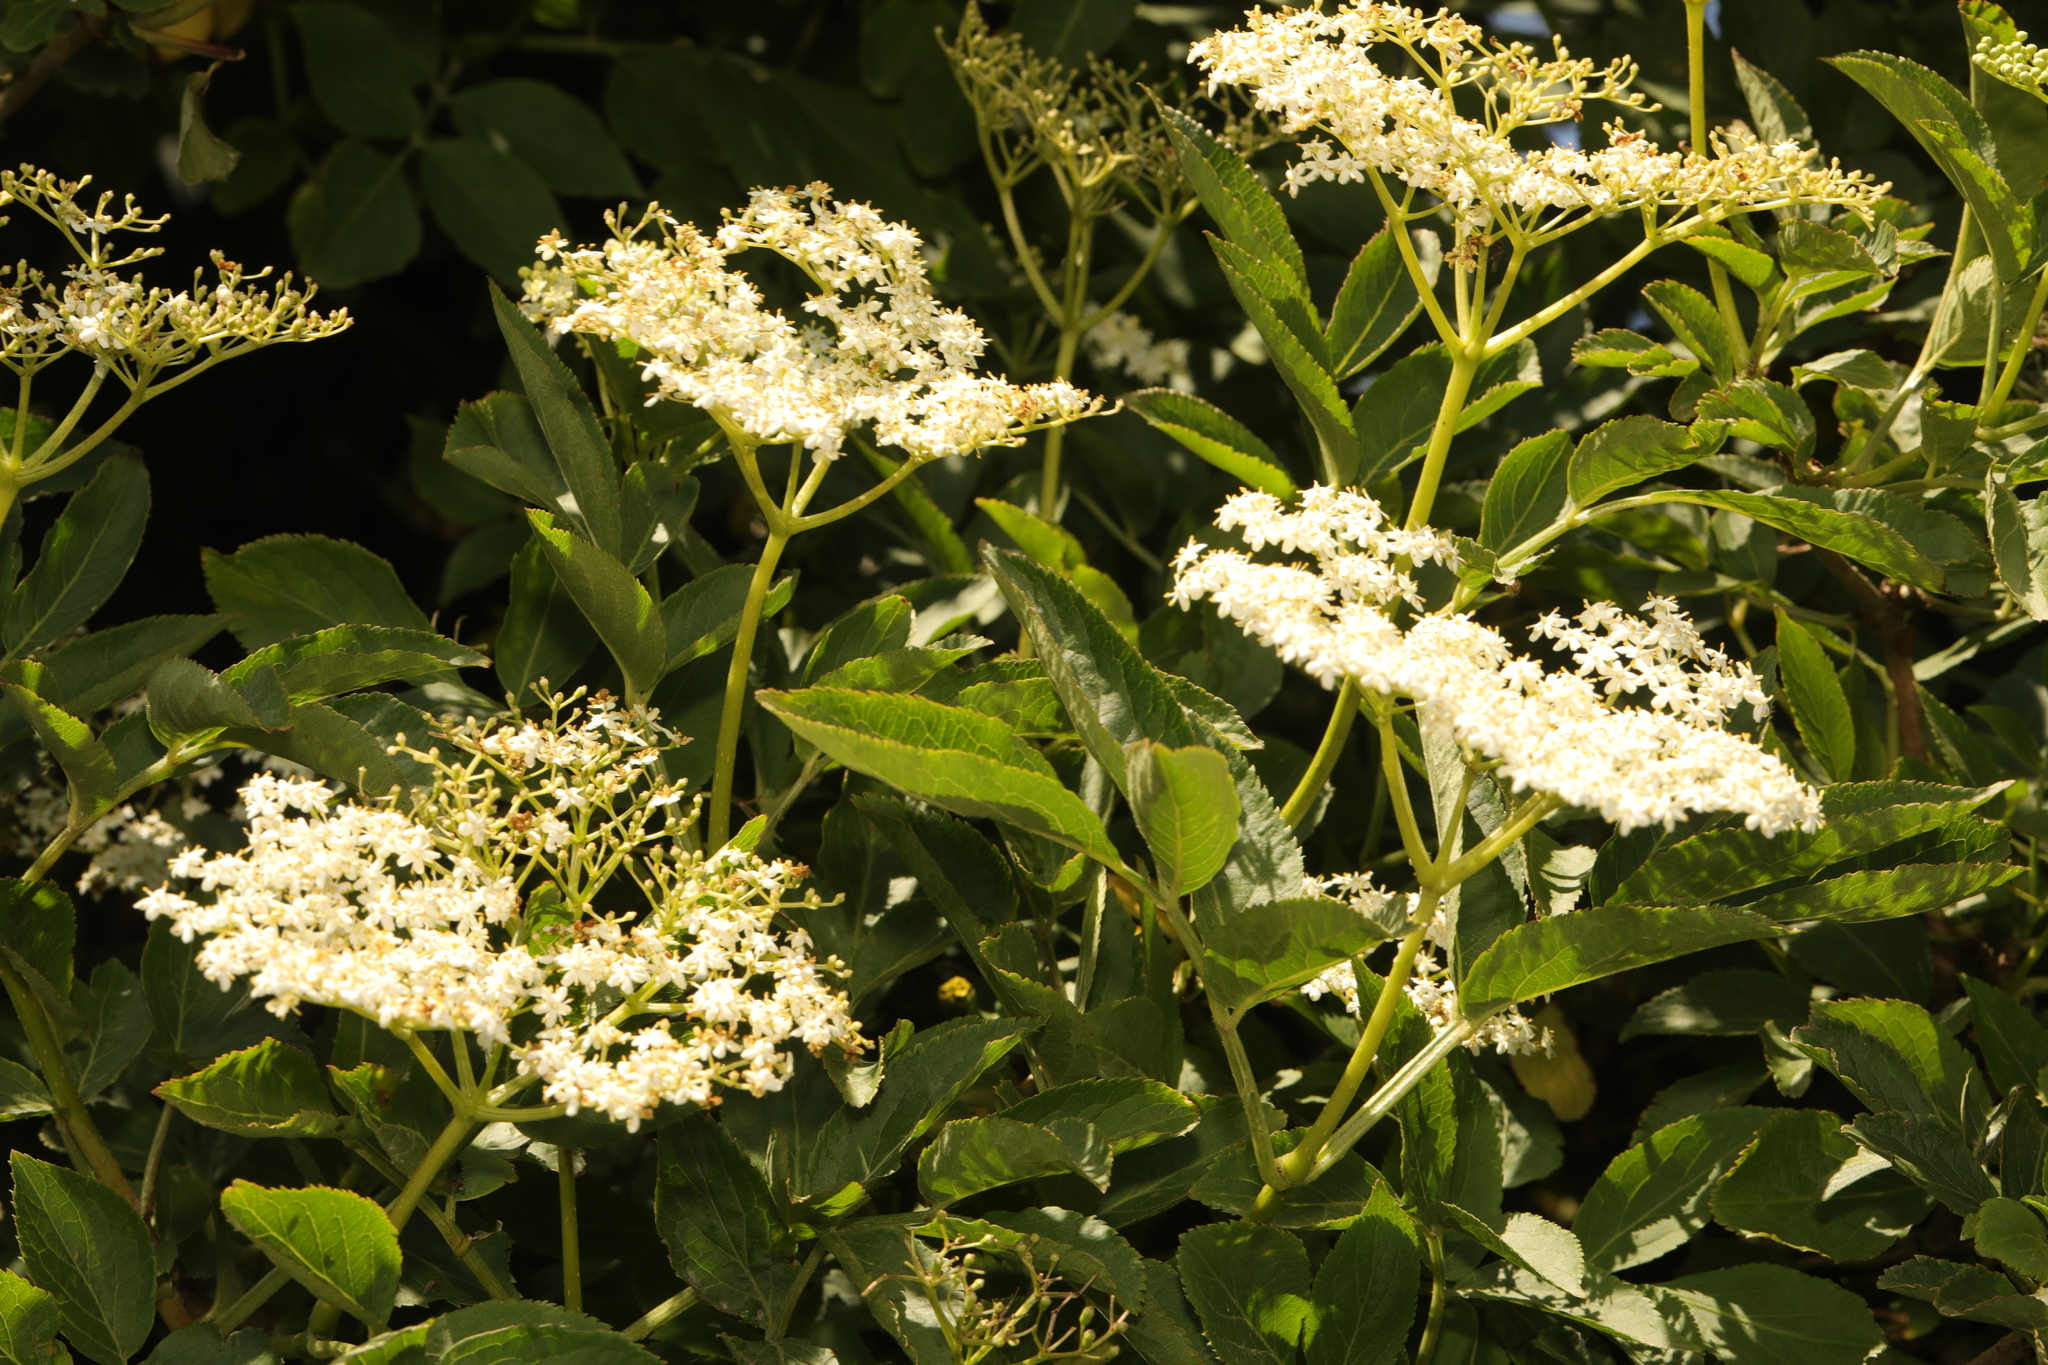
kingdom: Plantae
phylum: Tracheophyta
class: Magnoliopsida
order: Dipsacales
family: Viburnaceae
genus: Sambucus
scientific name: Sambucus nigra
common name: Elder
